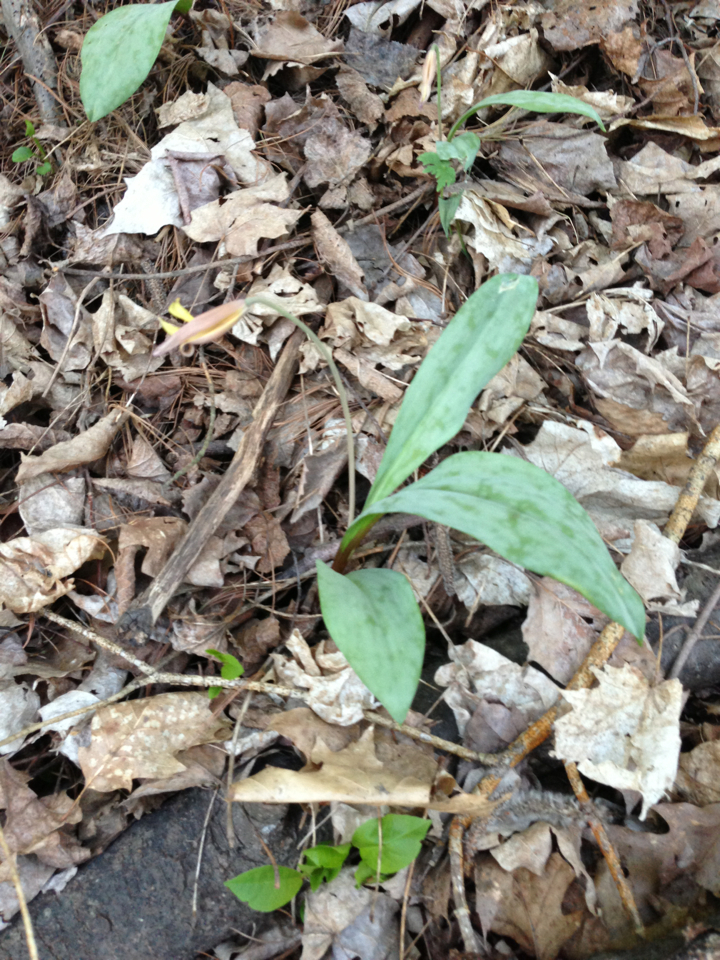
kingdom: Plantae
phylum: Tracheophyta
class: Liliopsida
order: Liliales
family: Liliaceae
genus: Erythronium
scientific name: Erythronium americanum
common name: Yellow adder's-tongue
